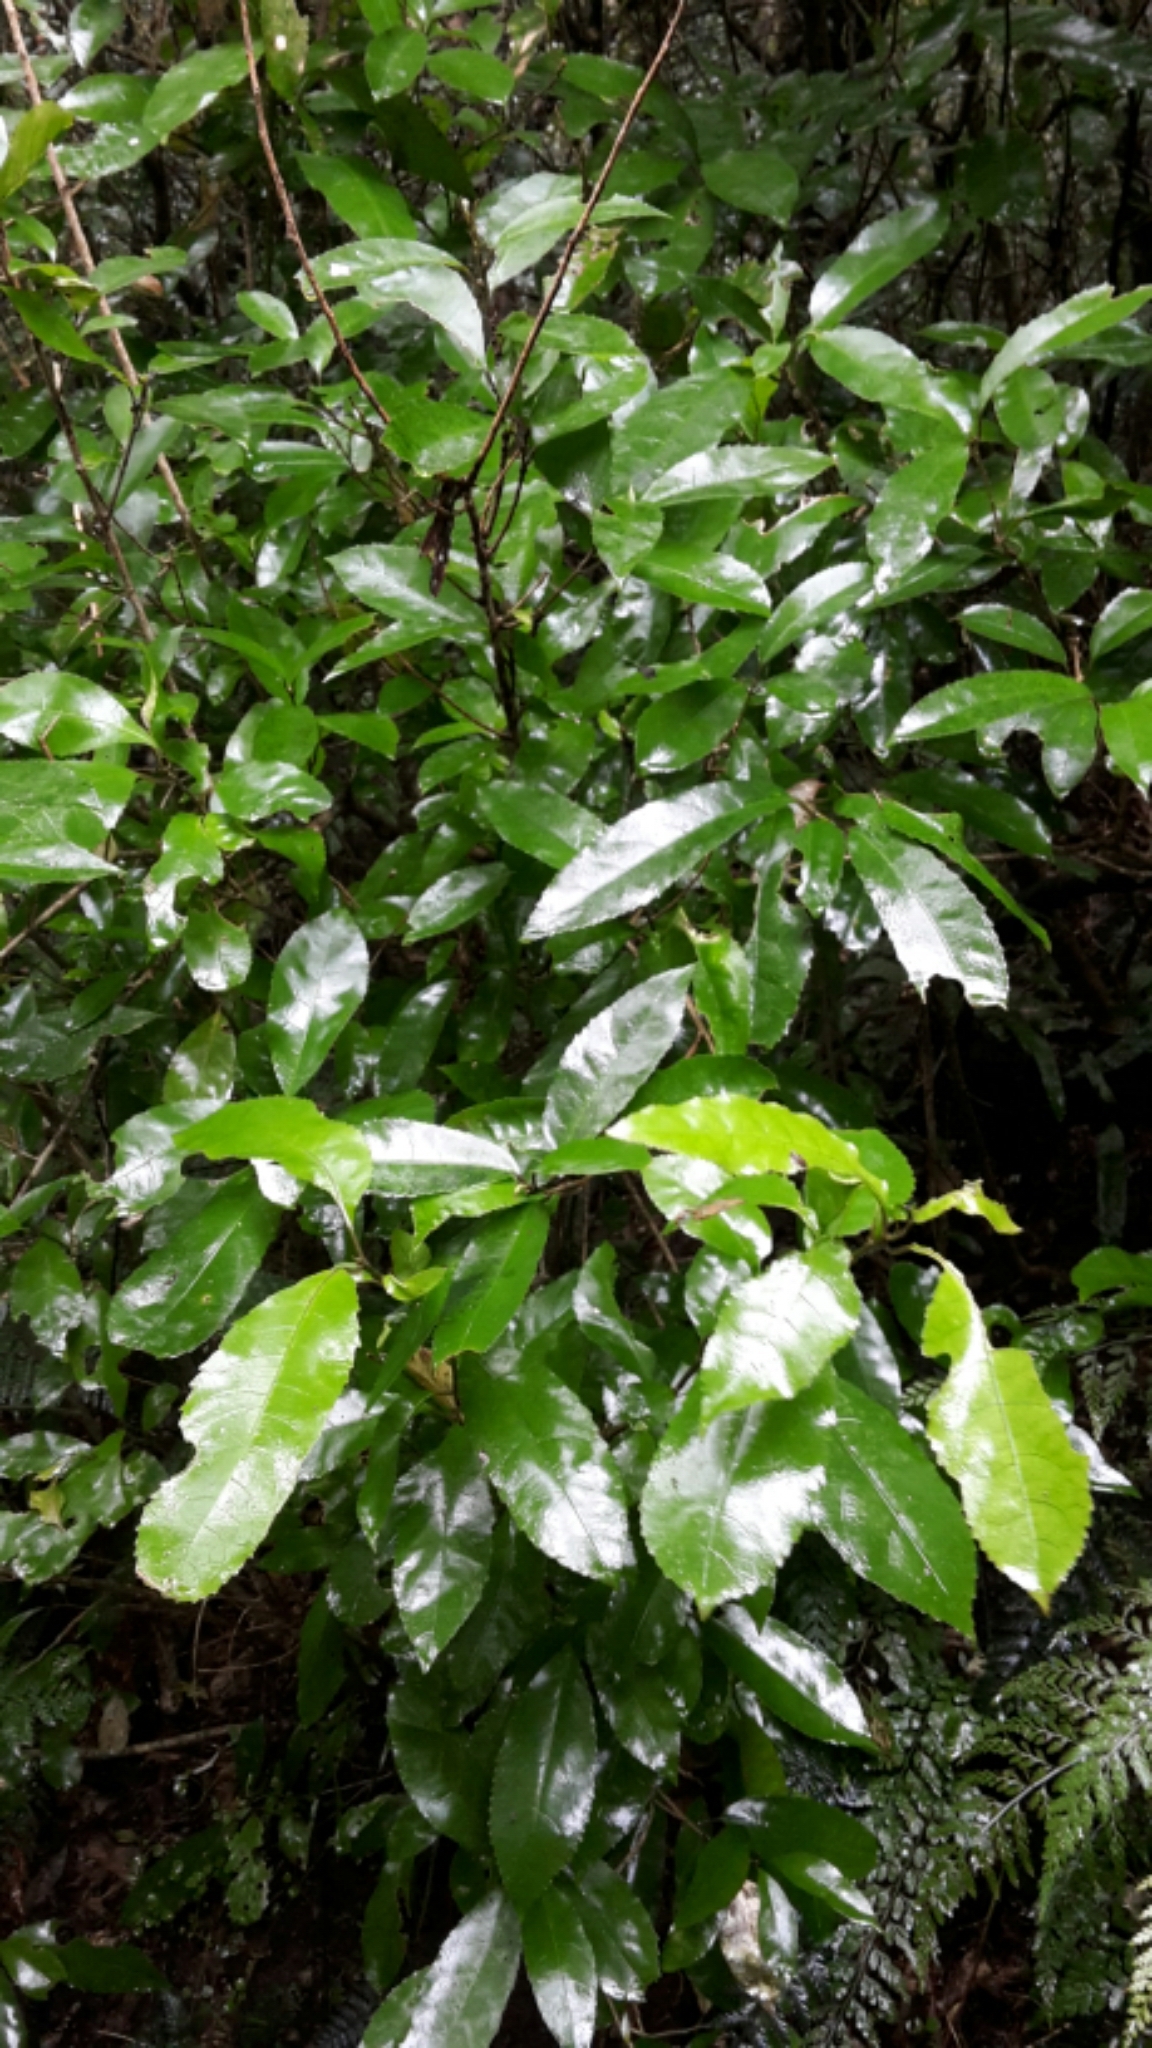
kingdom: Plantae
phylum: Tracheophyta
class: Magnoliopsida
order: Malpighiales
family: Violaceae
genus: Melicytus
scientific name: Melicytus ramiflorus
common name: Mahoe
